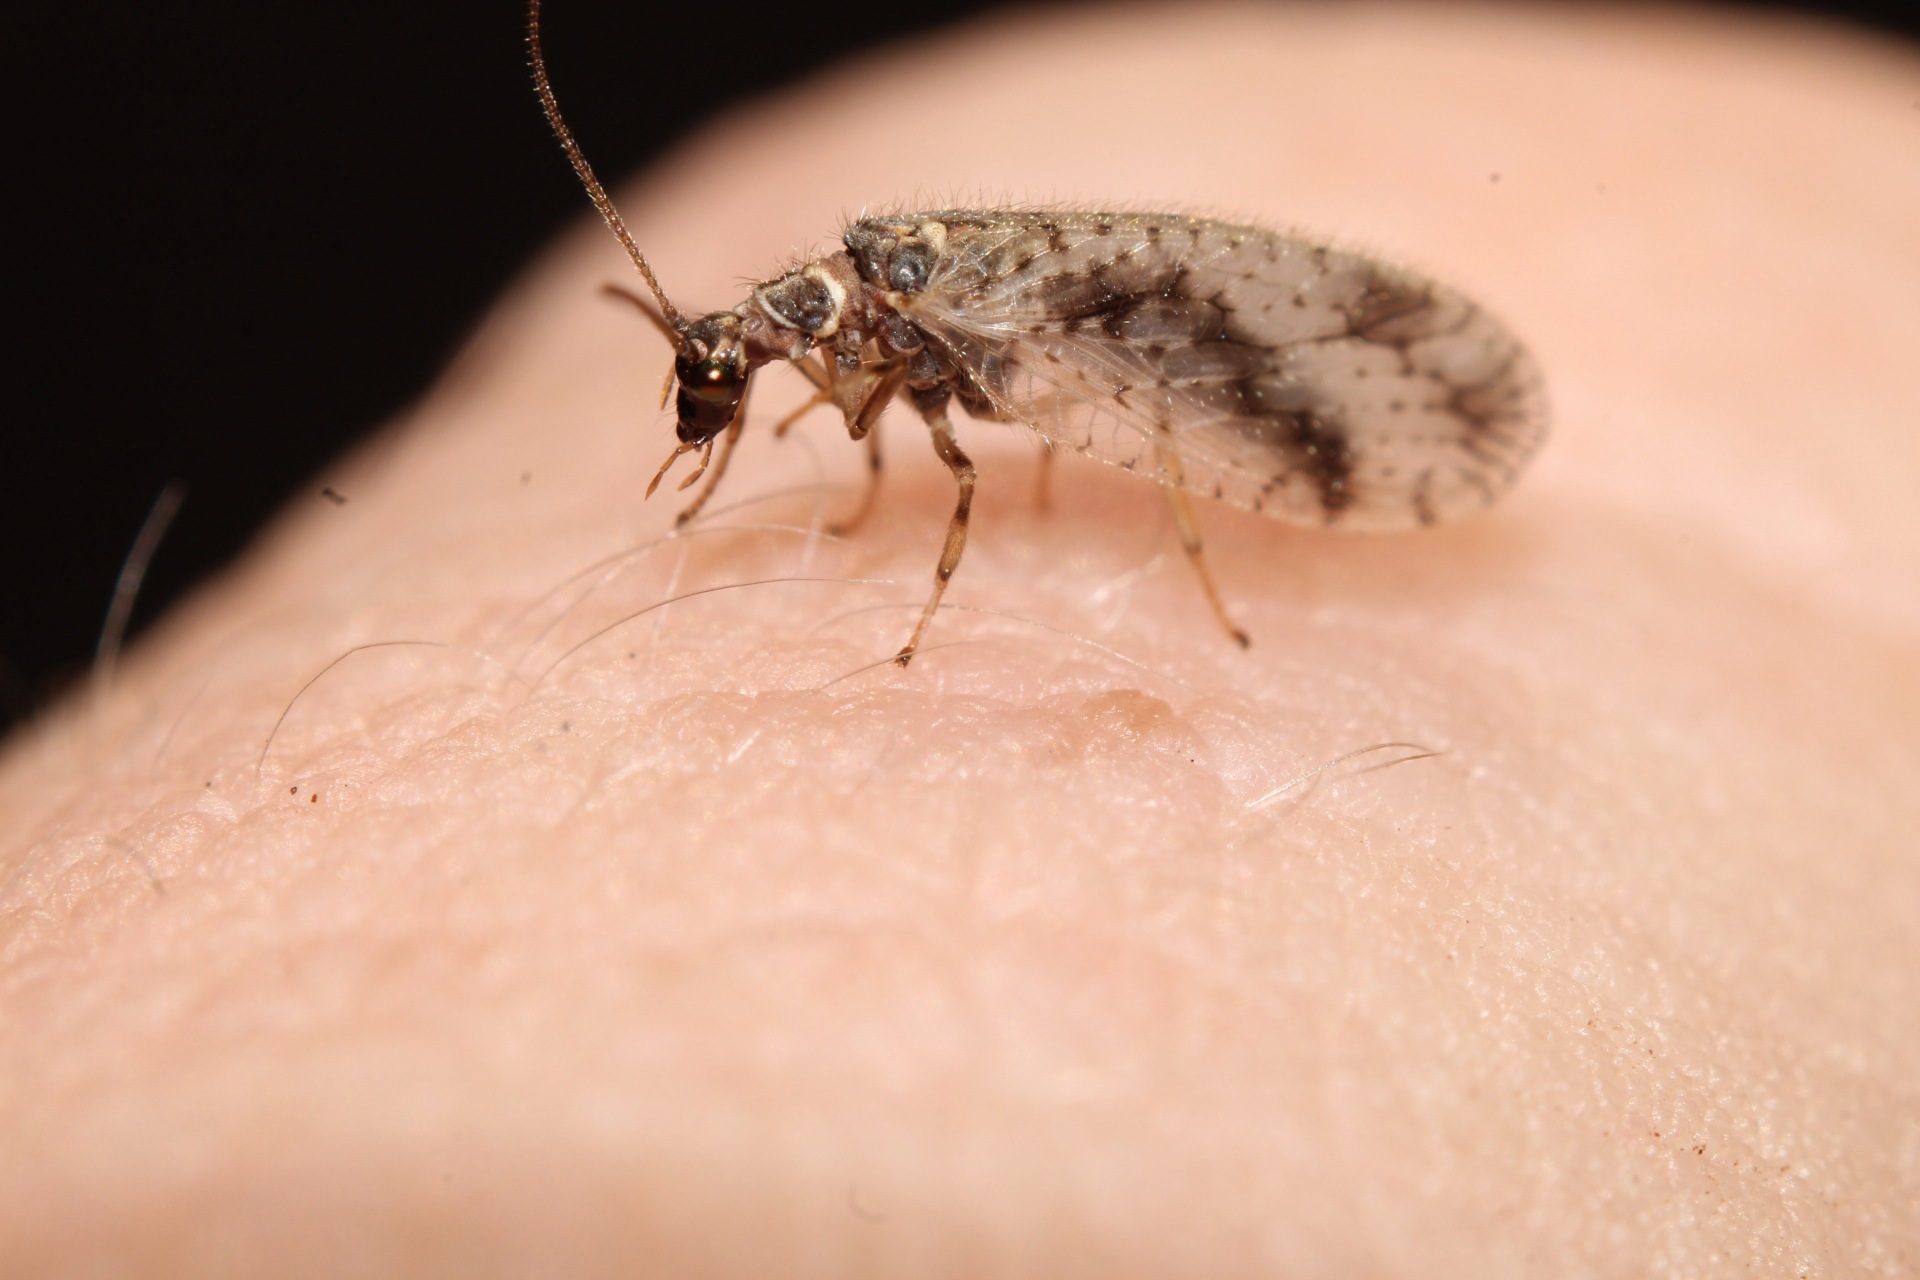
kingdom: Animalia
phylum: Arthropoda
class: Insecta
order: Neuroptera
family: Hemerobiidae
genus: Micromus
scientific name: Micromus variegatus
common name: Brown lacewing
